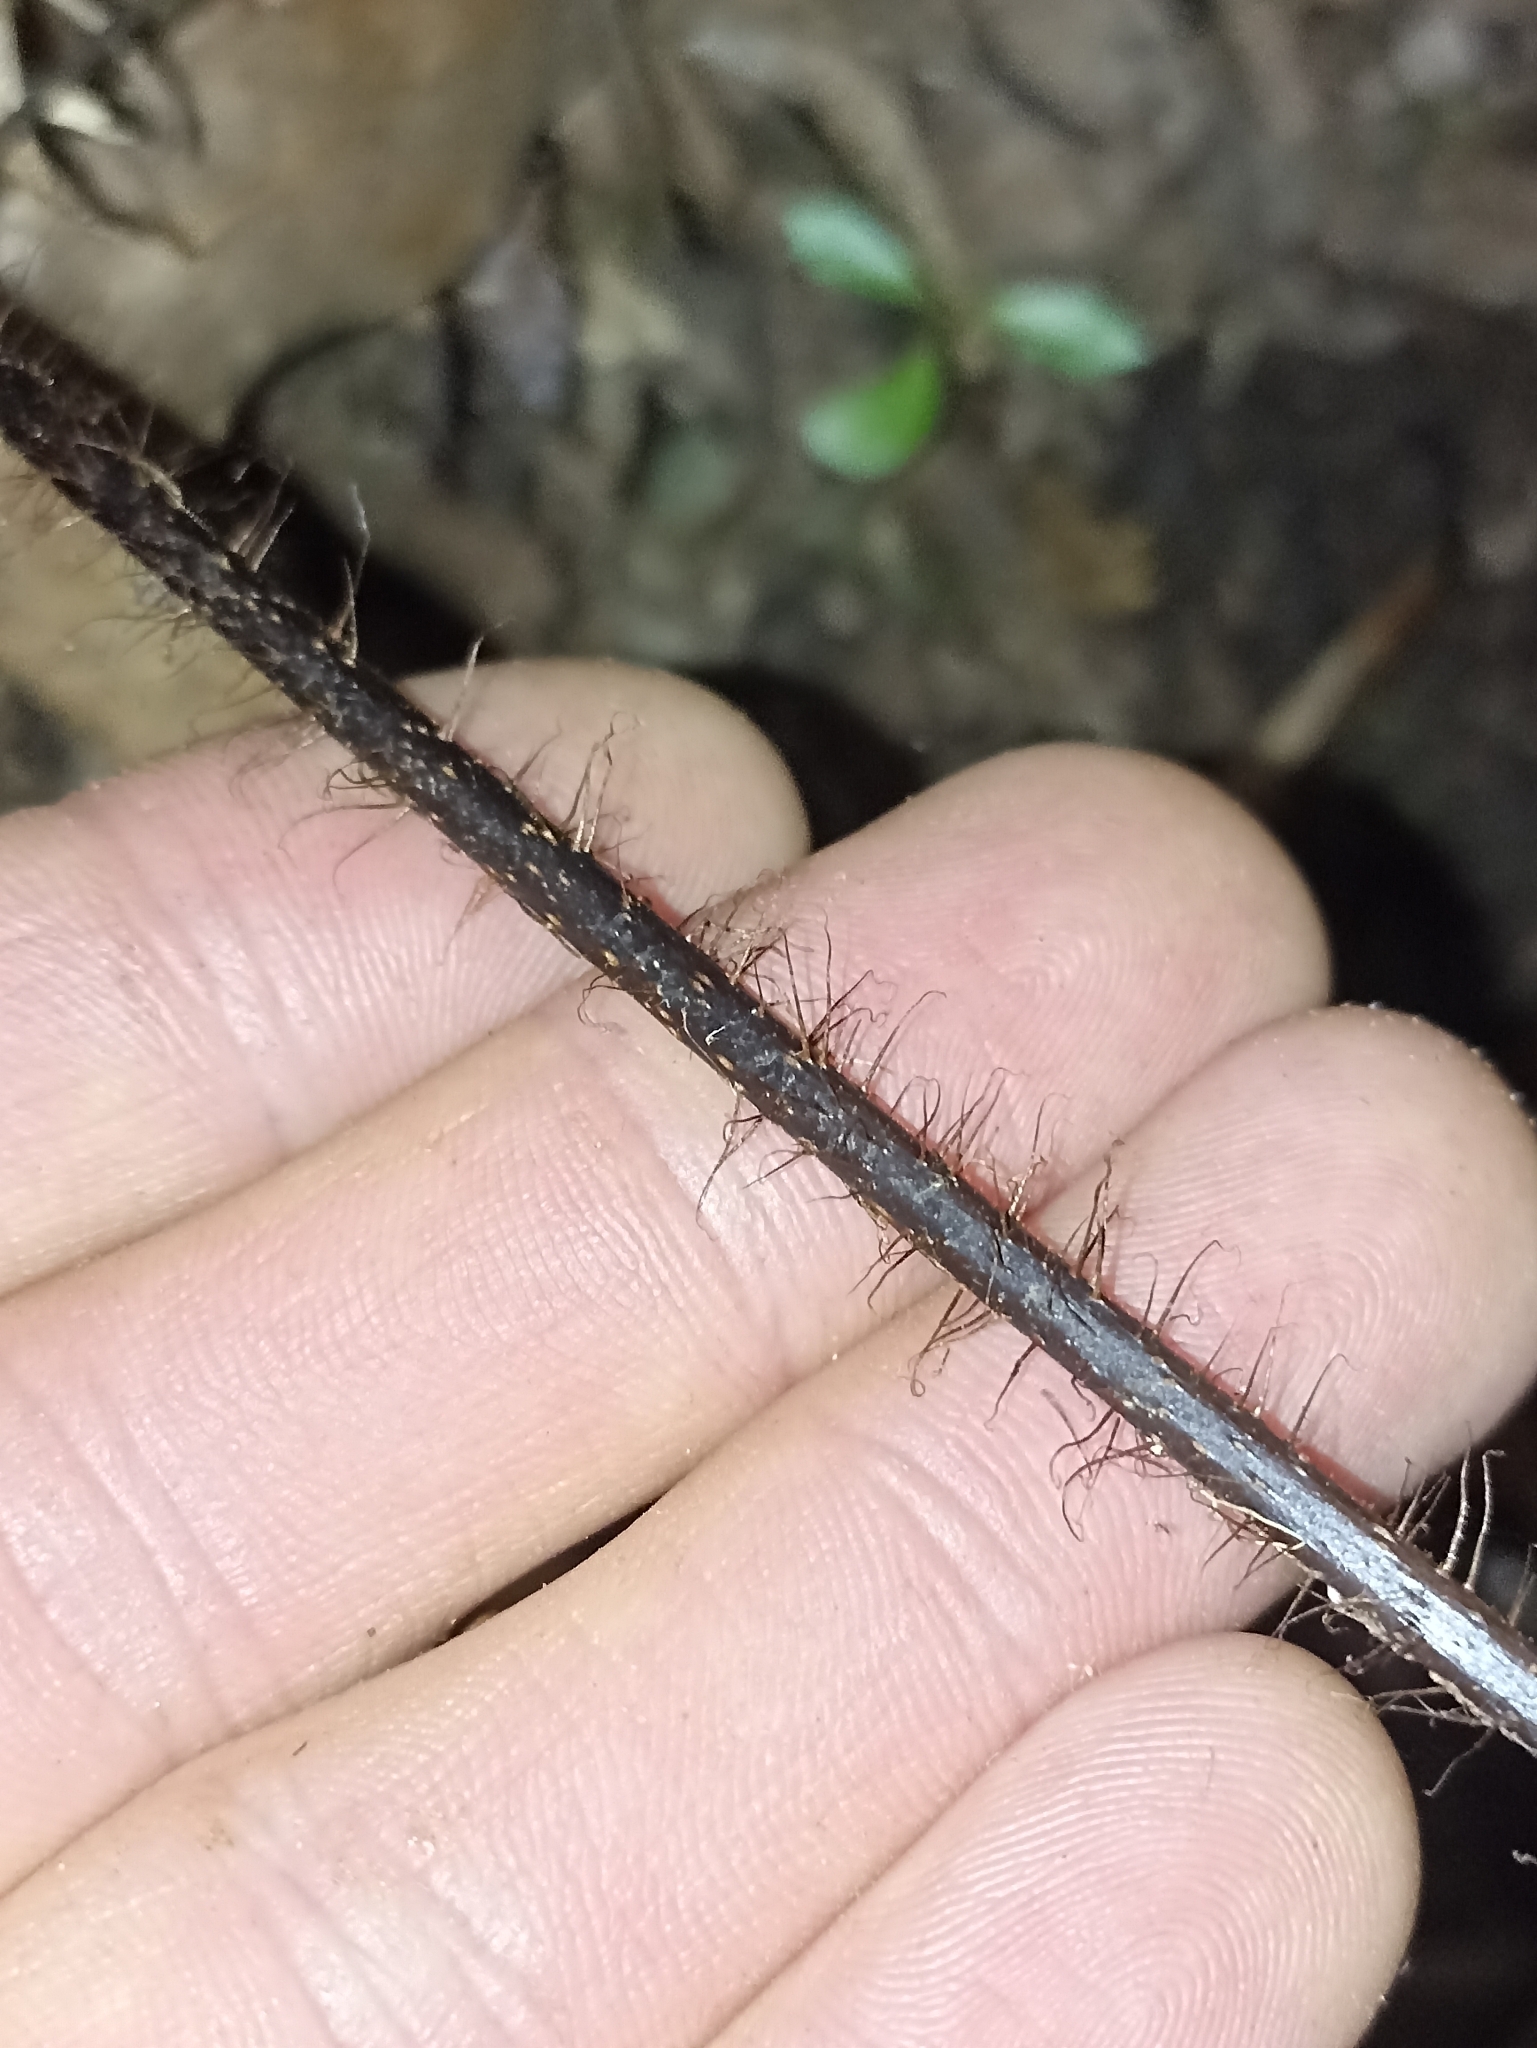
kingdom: Plantae
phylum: Tracheophyta
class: Polypodiopsida
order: Polypodiales
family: Dryopteridaceae
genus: Lastreopsis
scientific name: Lastreopsis hispida
